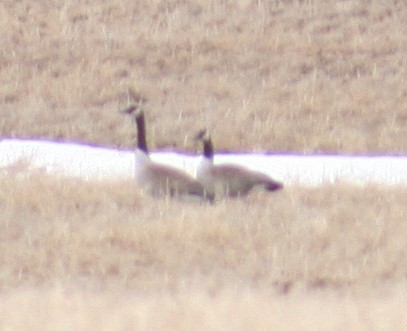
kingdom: Animalia
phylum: Chordata
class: Aves
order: Anseriformes
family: Anatidae
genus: Branta
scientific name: Branta canadensis
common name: Canada goose
